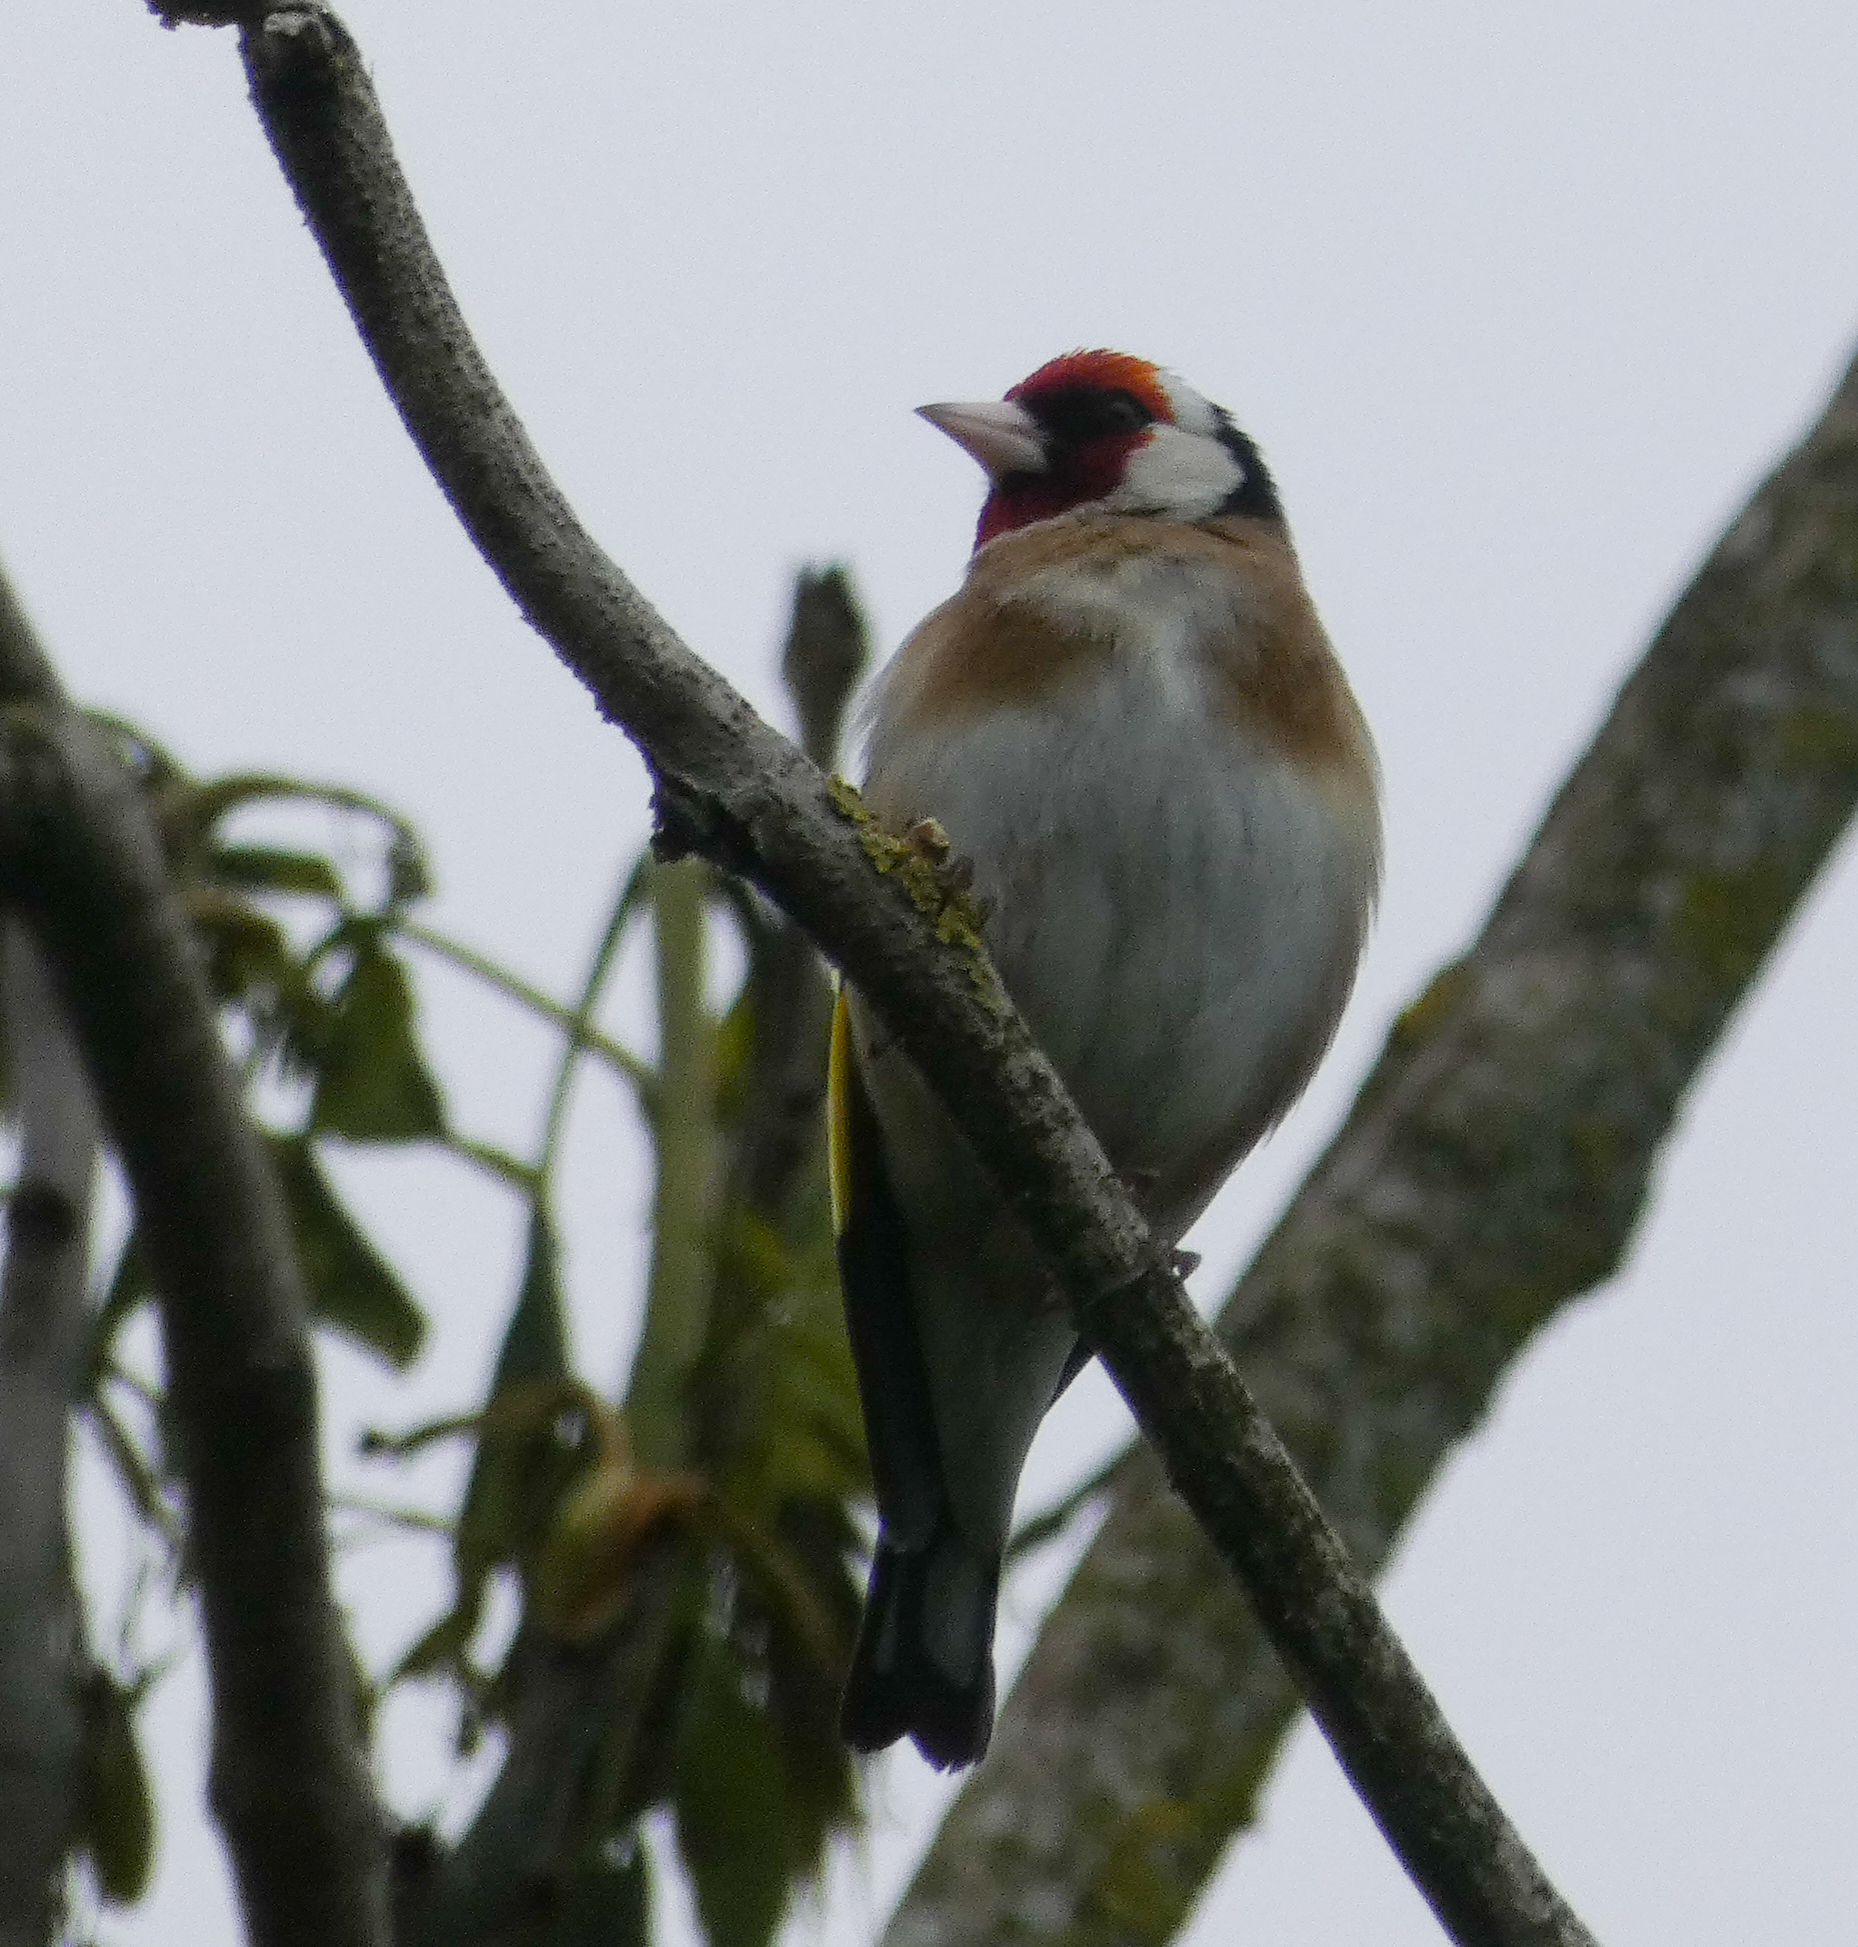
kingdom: Animalia
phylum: Chordata
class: Aves
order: Passeriformes
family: Fringillidae
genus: Carduelis
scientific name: Carduelis carduelis
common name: European goldfinch
